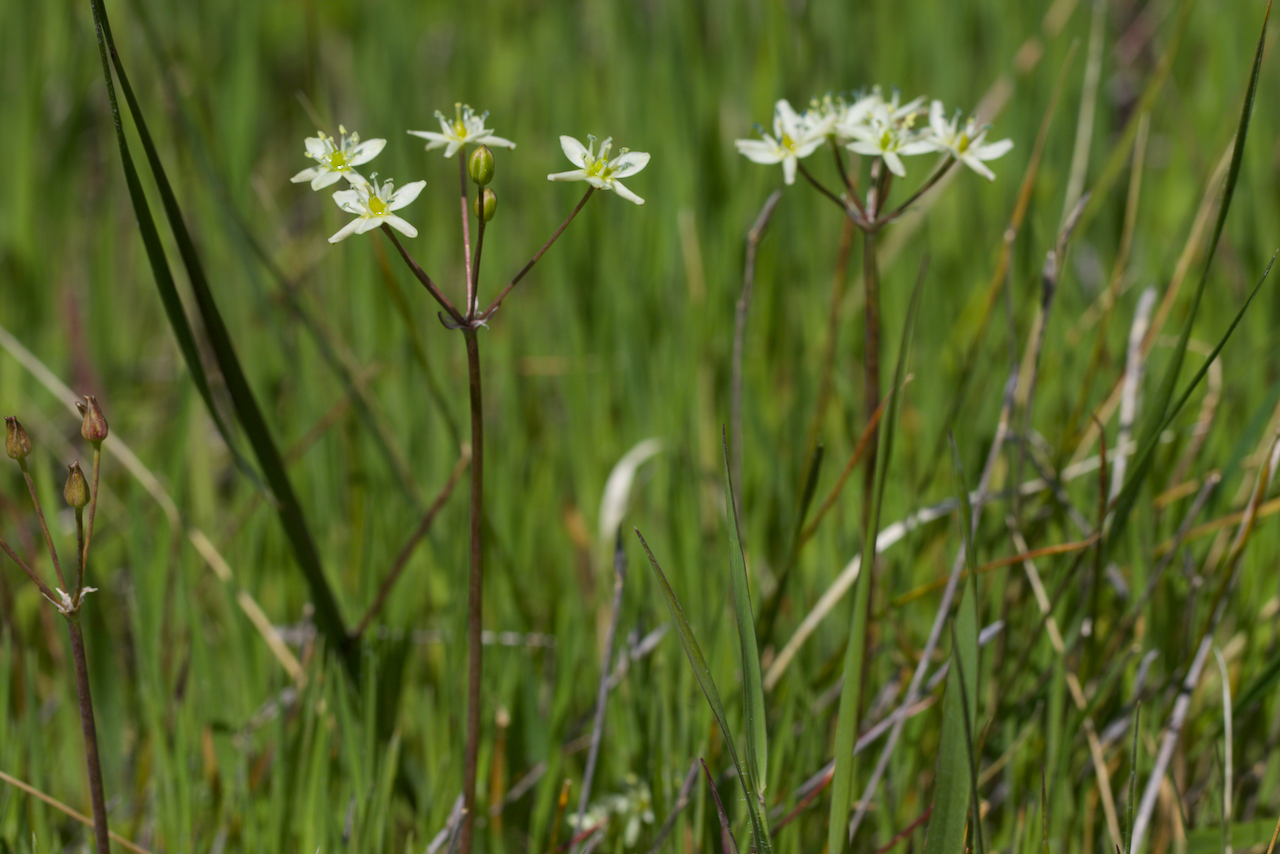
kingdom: Plantae
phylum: Tracheophyta
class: Liliopsida
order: Asparagales
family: Asparagaceae
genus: Muilla
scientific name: Muilla maritima
